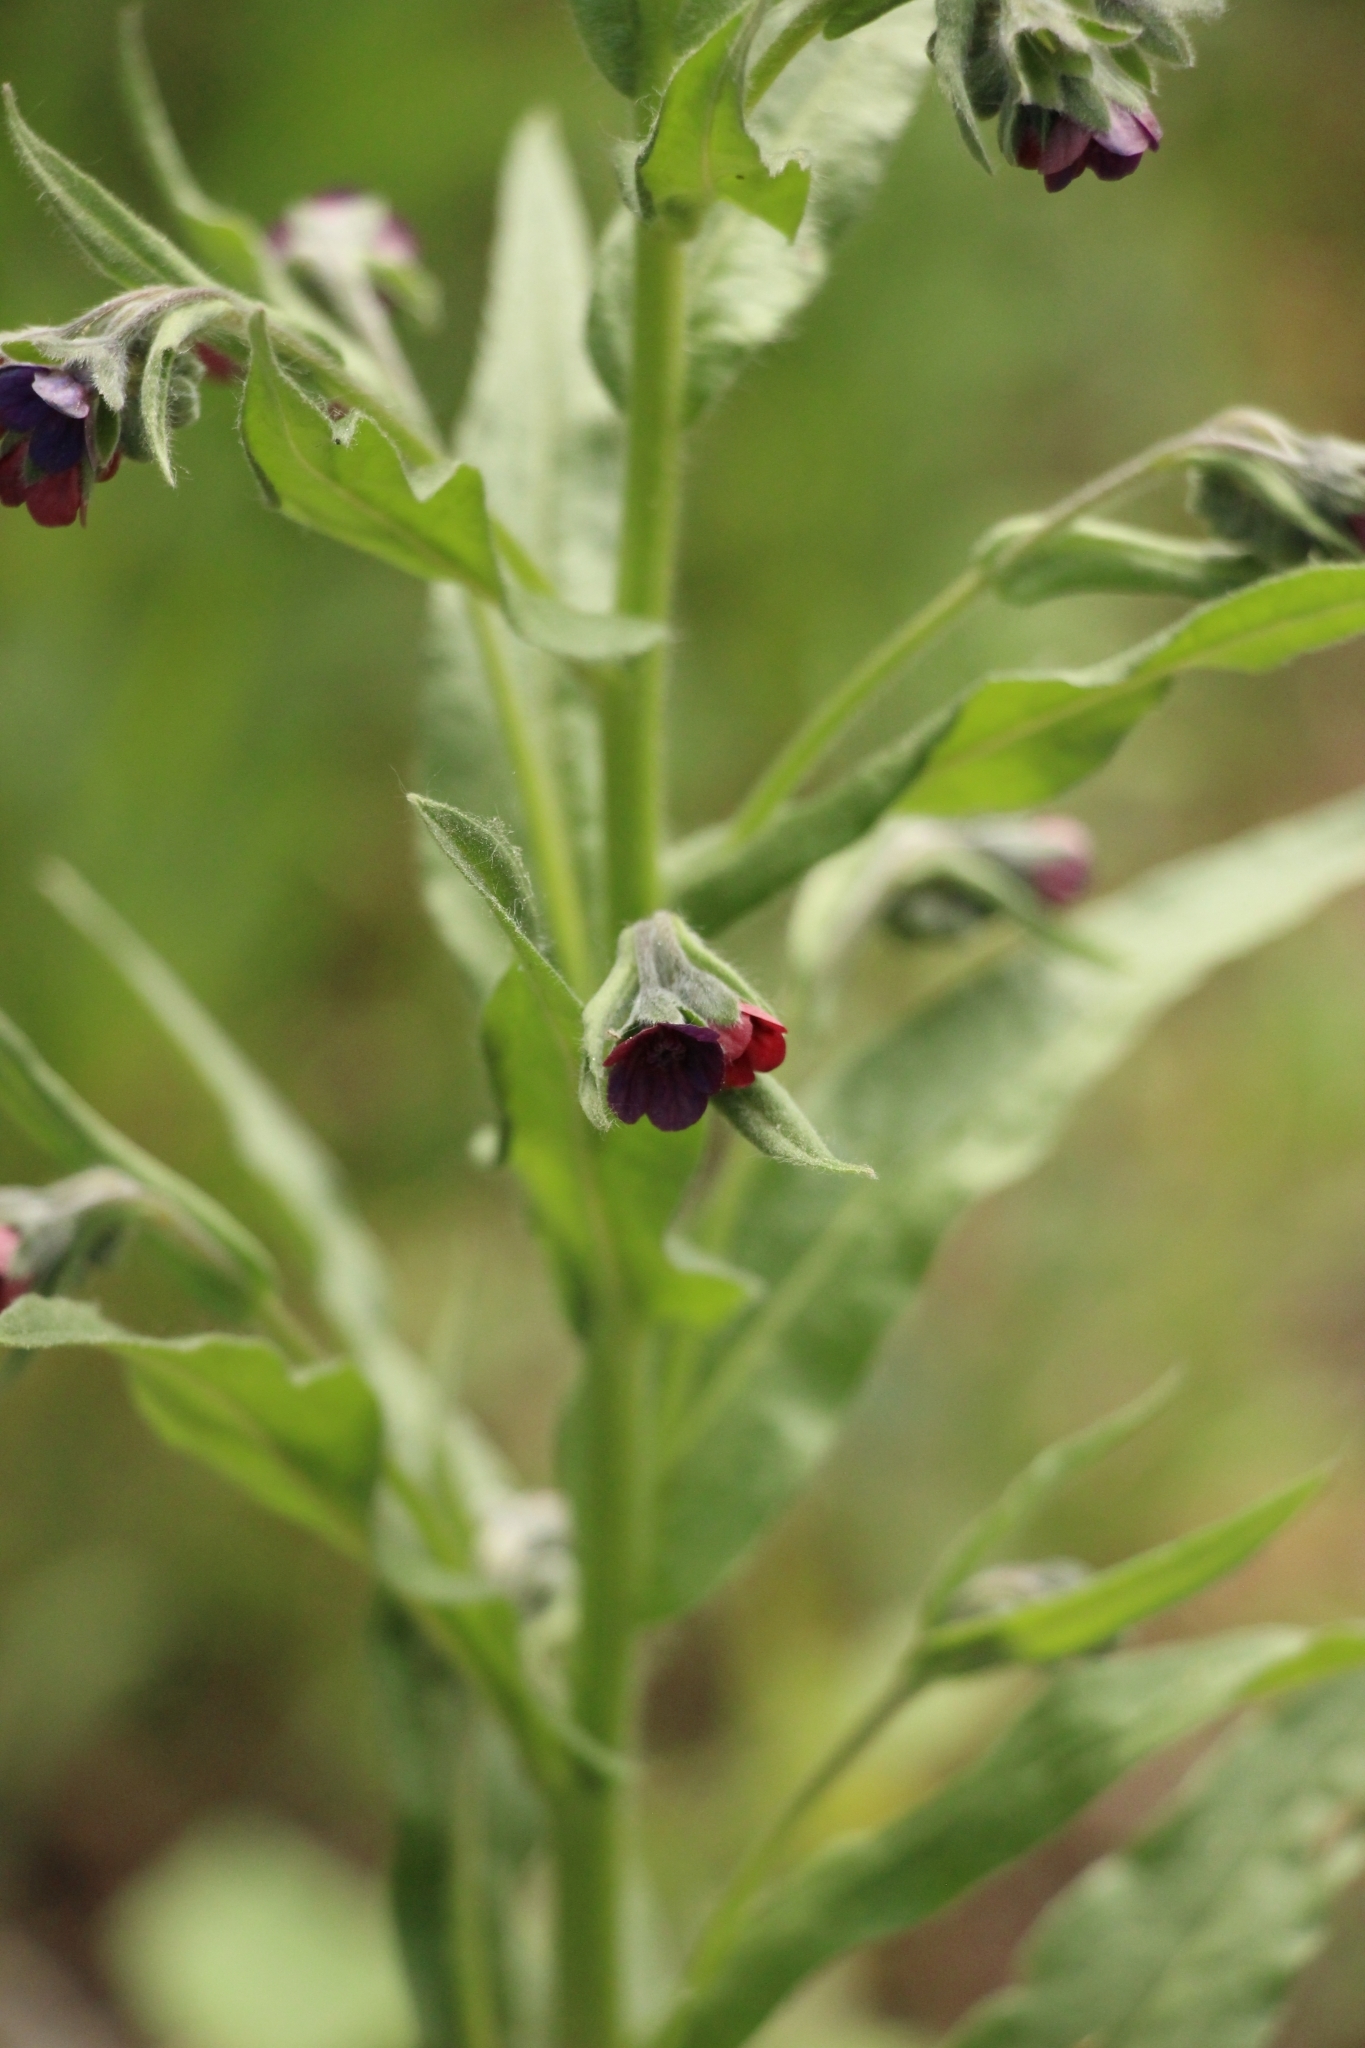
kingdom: Plantae
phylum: Tracheophyta
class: Magnoliopsida
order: Boraginales
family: Boraginaceae
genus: Cynoglossum
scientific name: Cynoglossum officinale
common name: Hound's-tongue
